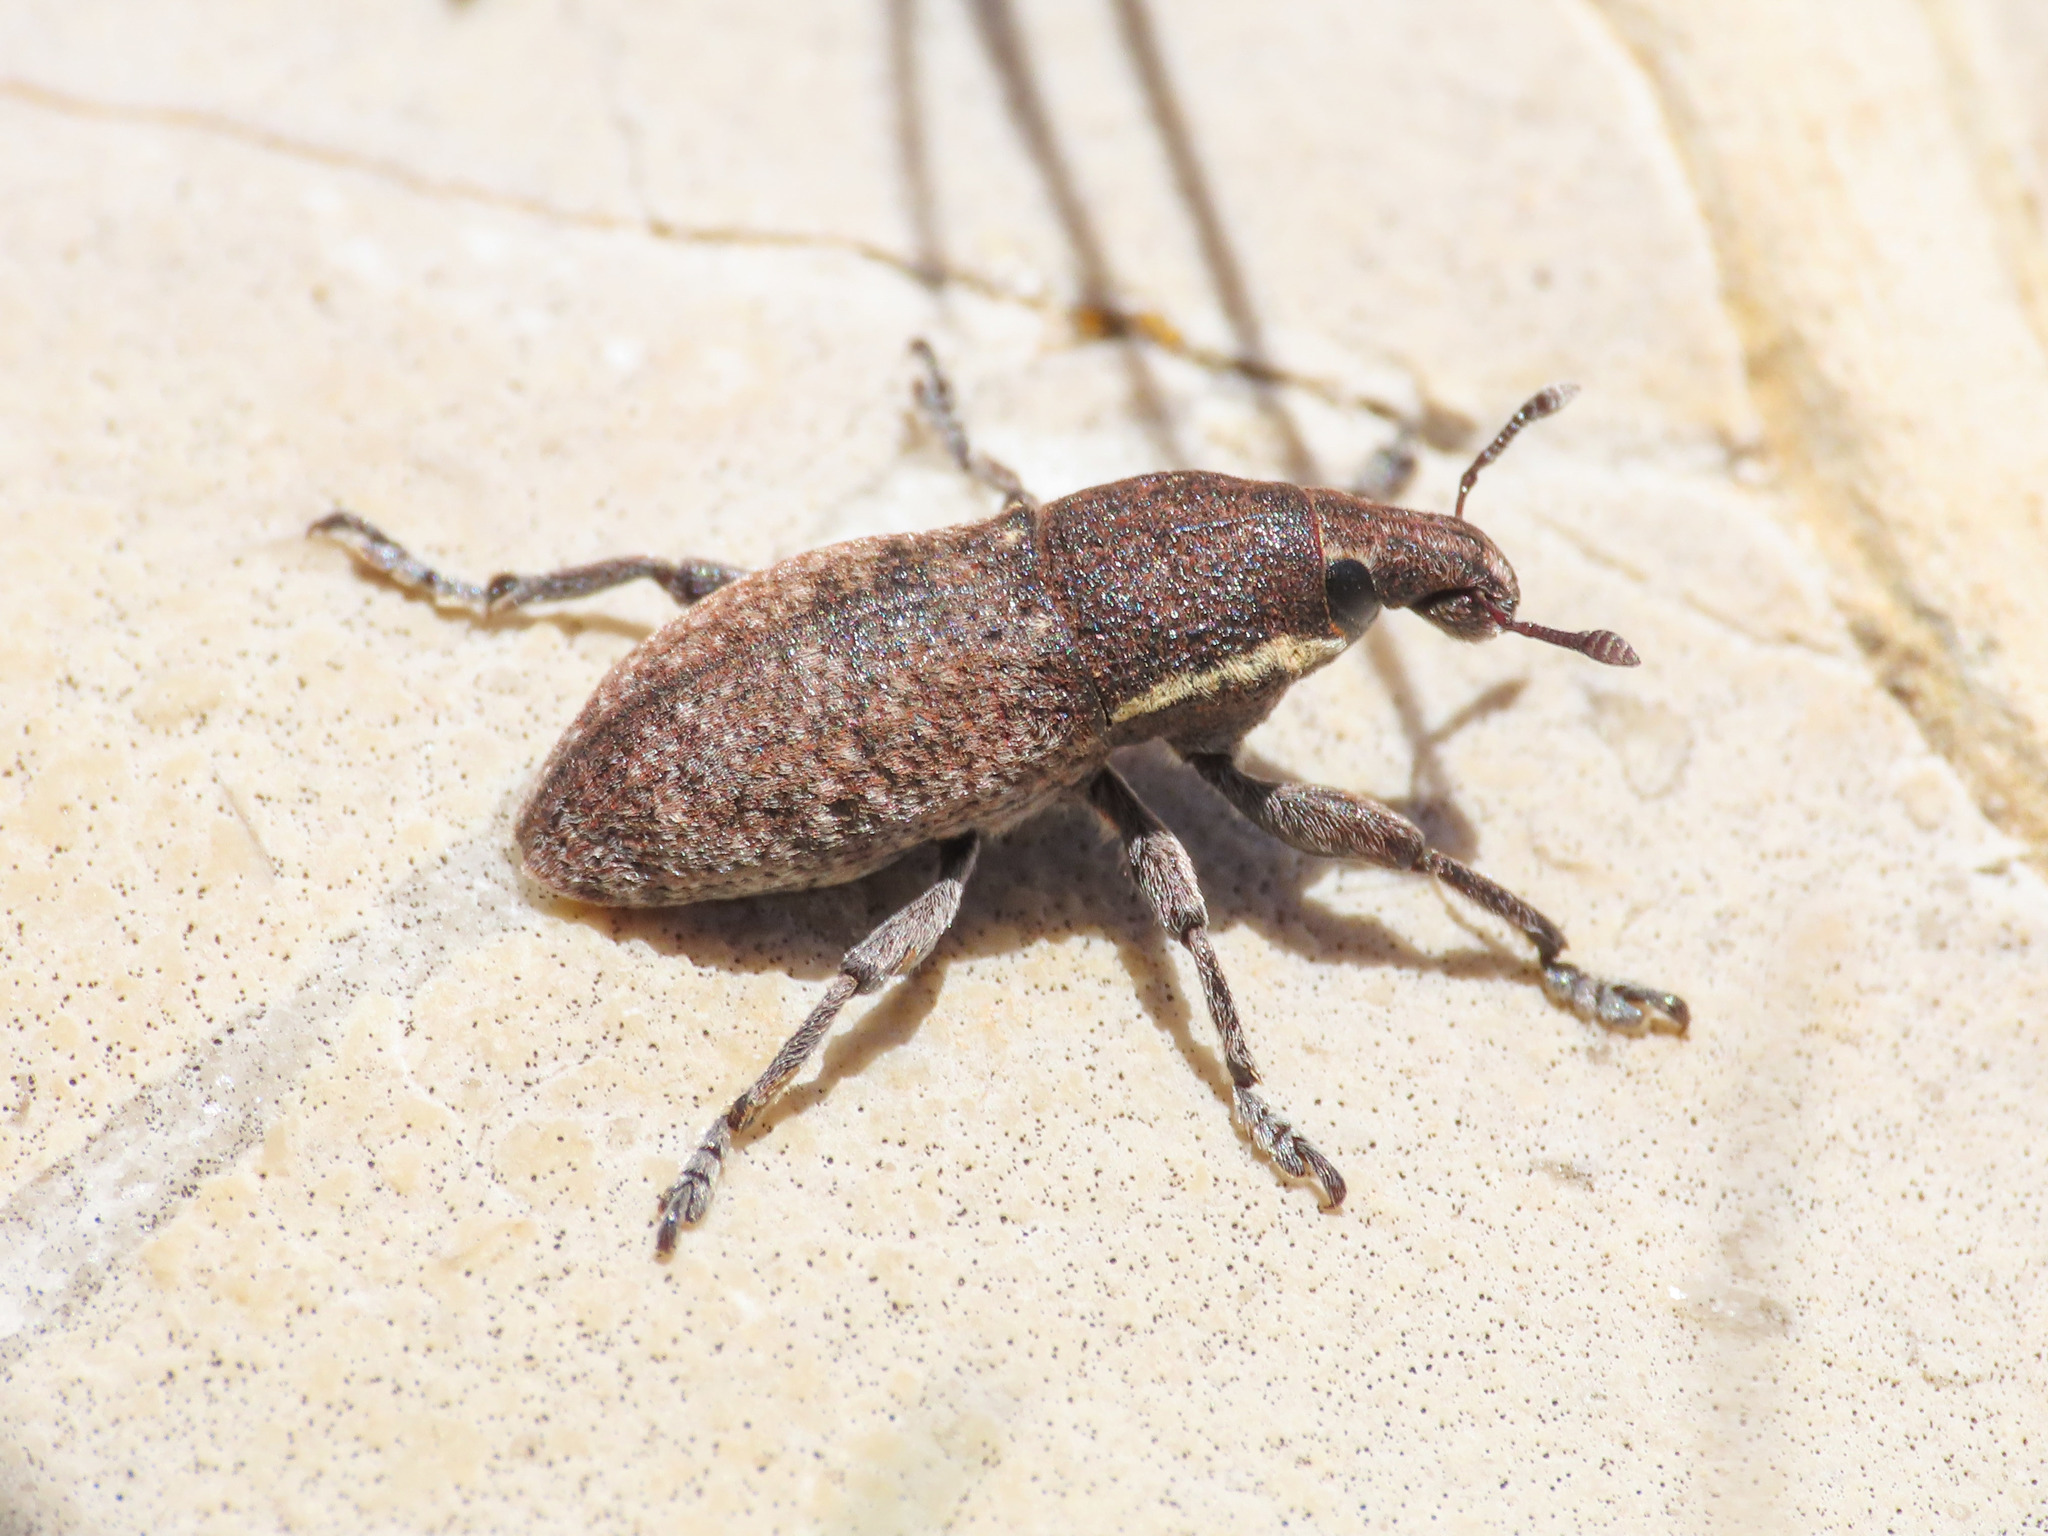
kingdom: Animalia
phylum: Arthropoda
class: Insecta
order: Coleoptera
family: Curculionidae
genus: Pseudocleonus
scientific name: Pseudocleonus grammicus
